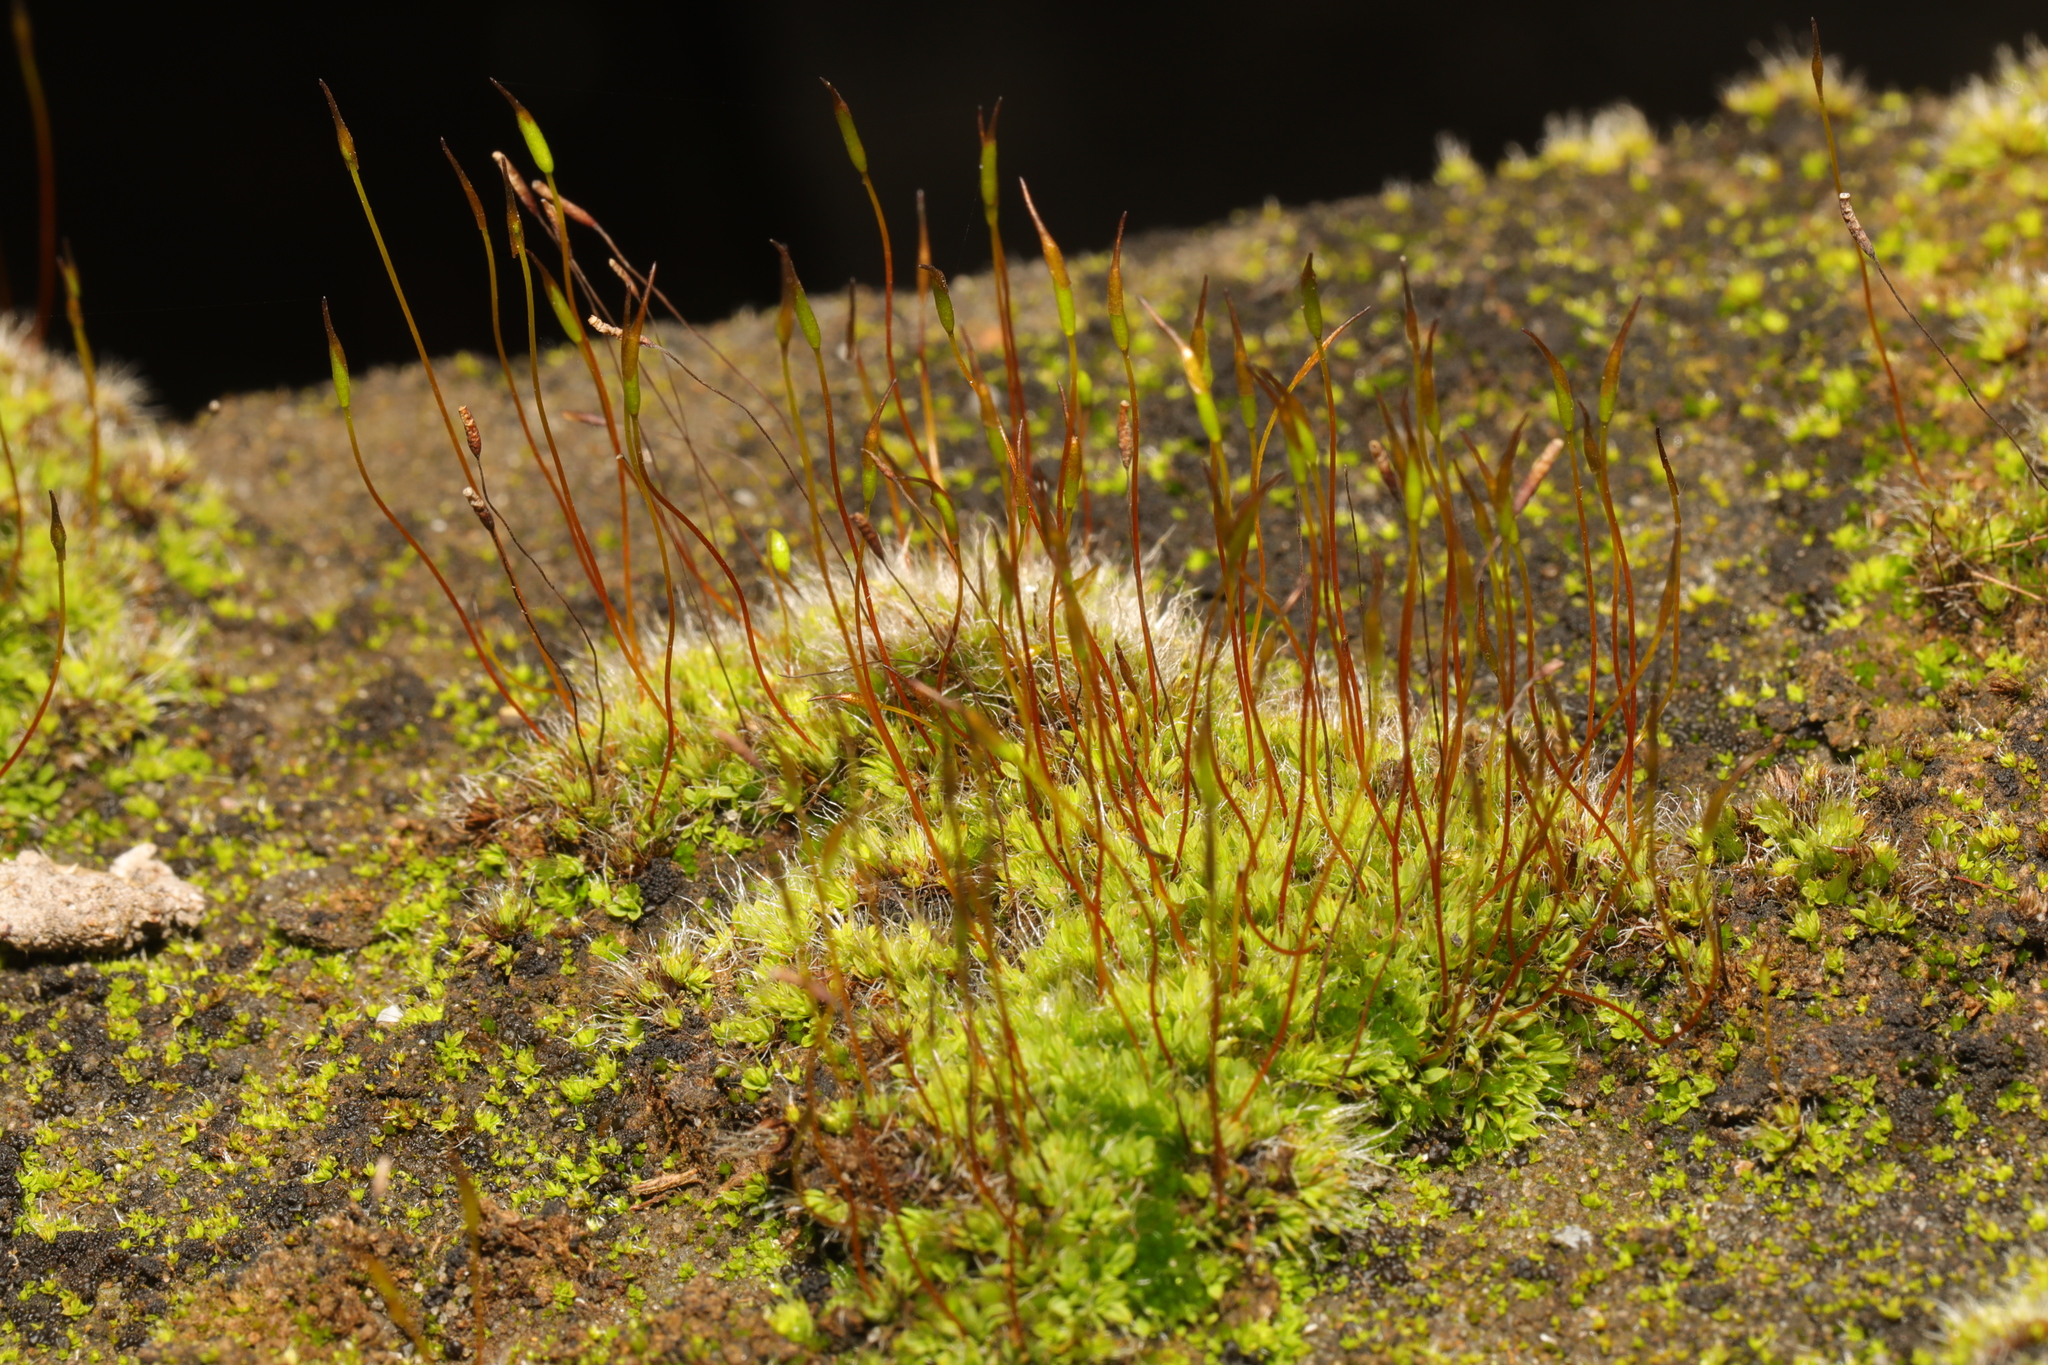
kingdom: Plantae
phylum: Bryophyta
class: Bryopsida
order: Pottiales
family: Pottiaceae
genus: Tortula
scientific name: Tortula muralis
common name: Wall screw-moss
